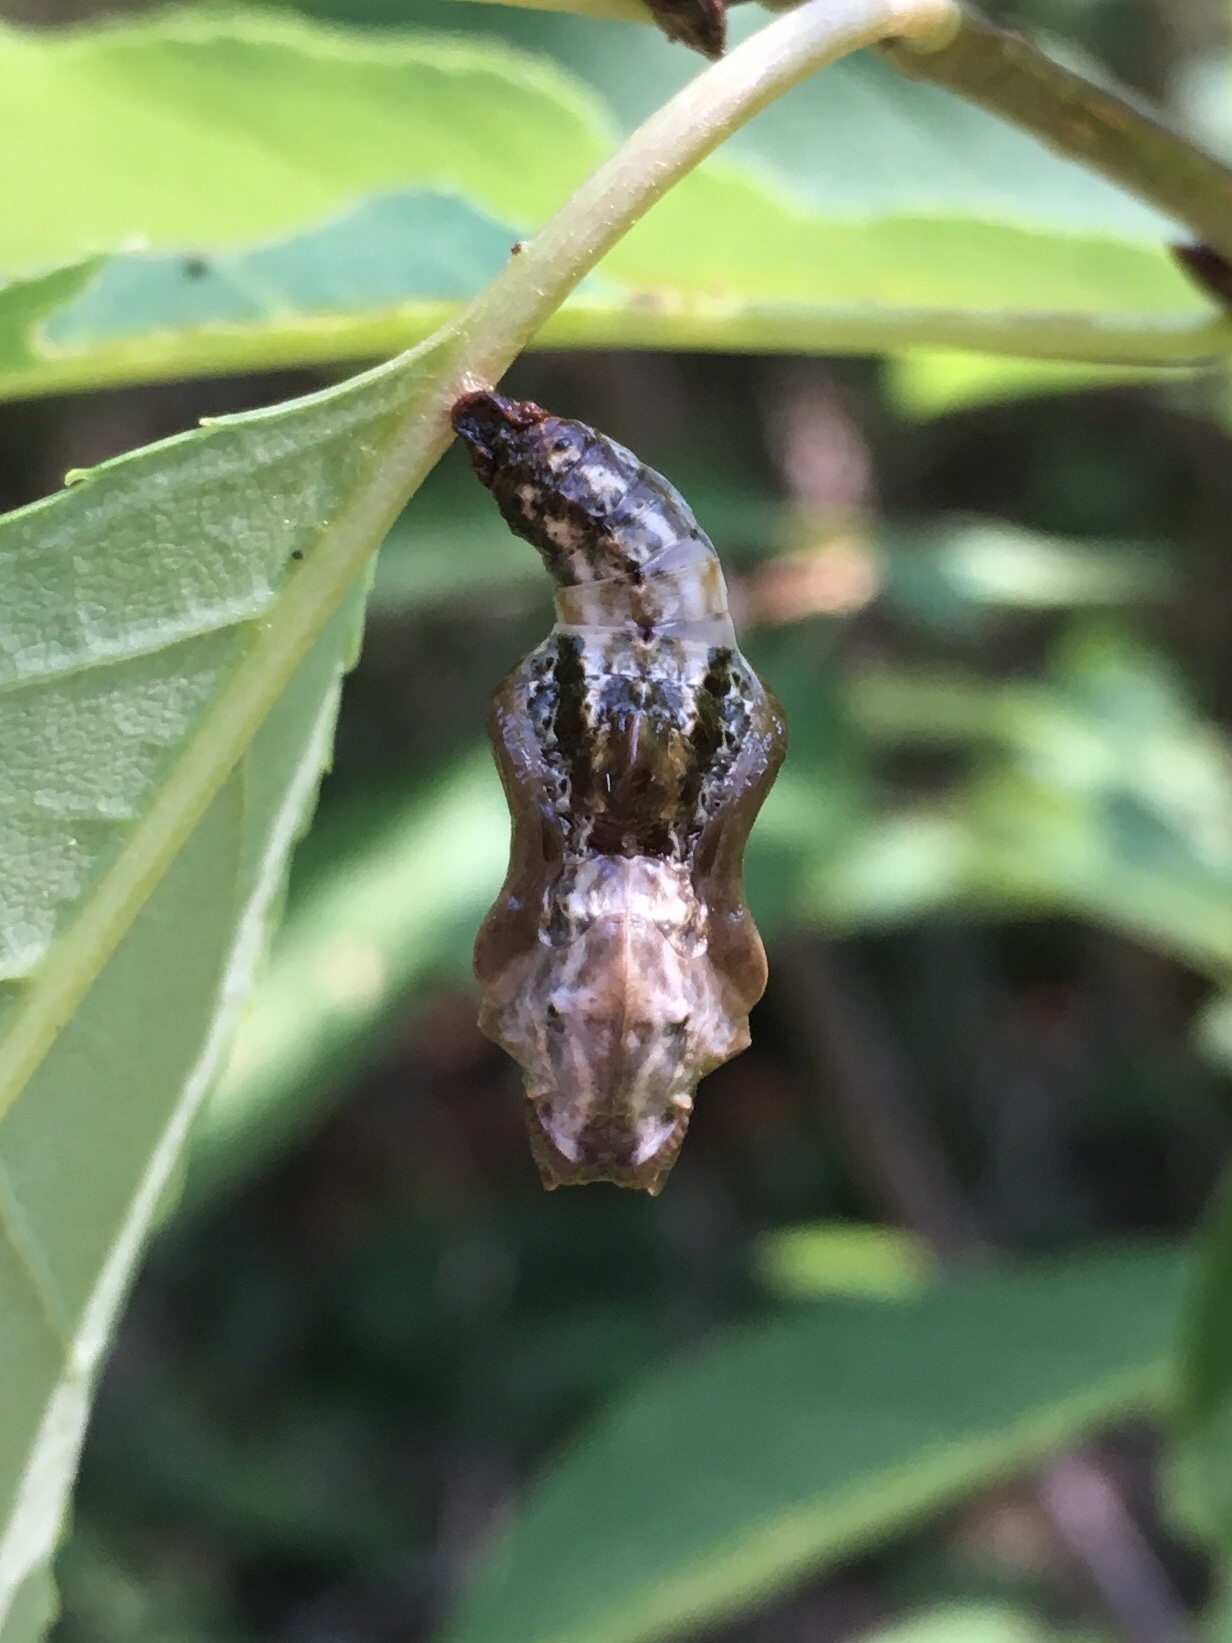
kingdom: Animalia
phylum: Arthropoda
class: Insecta
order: Lepidoptera
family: Nymphalidae
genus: Limenitis
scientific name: Limenitis
